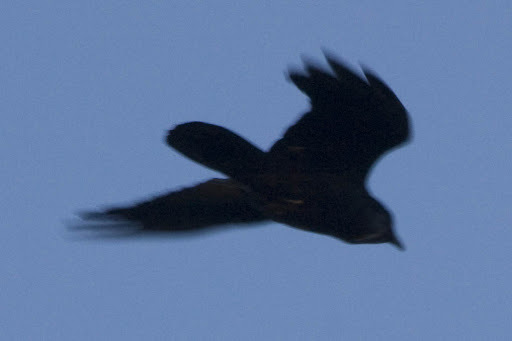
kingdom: Animalia
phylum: Chordata
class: Aves
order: Passeriformes
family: Corvidae
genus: Corvus
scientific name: Corvus brachyrhynchos
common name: American crow
